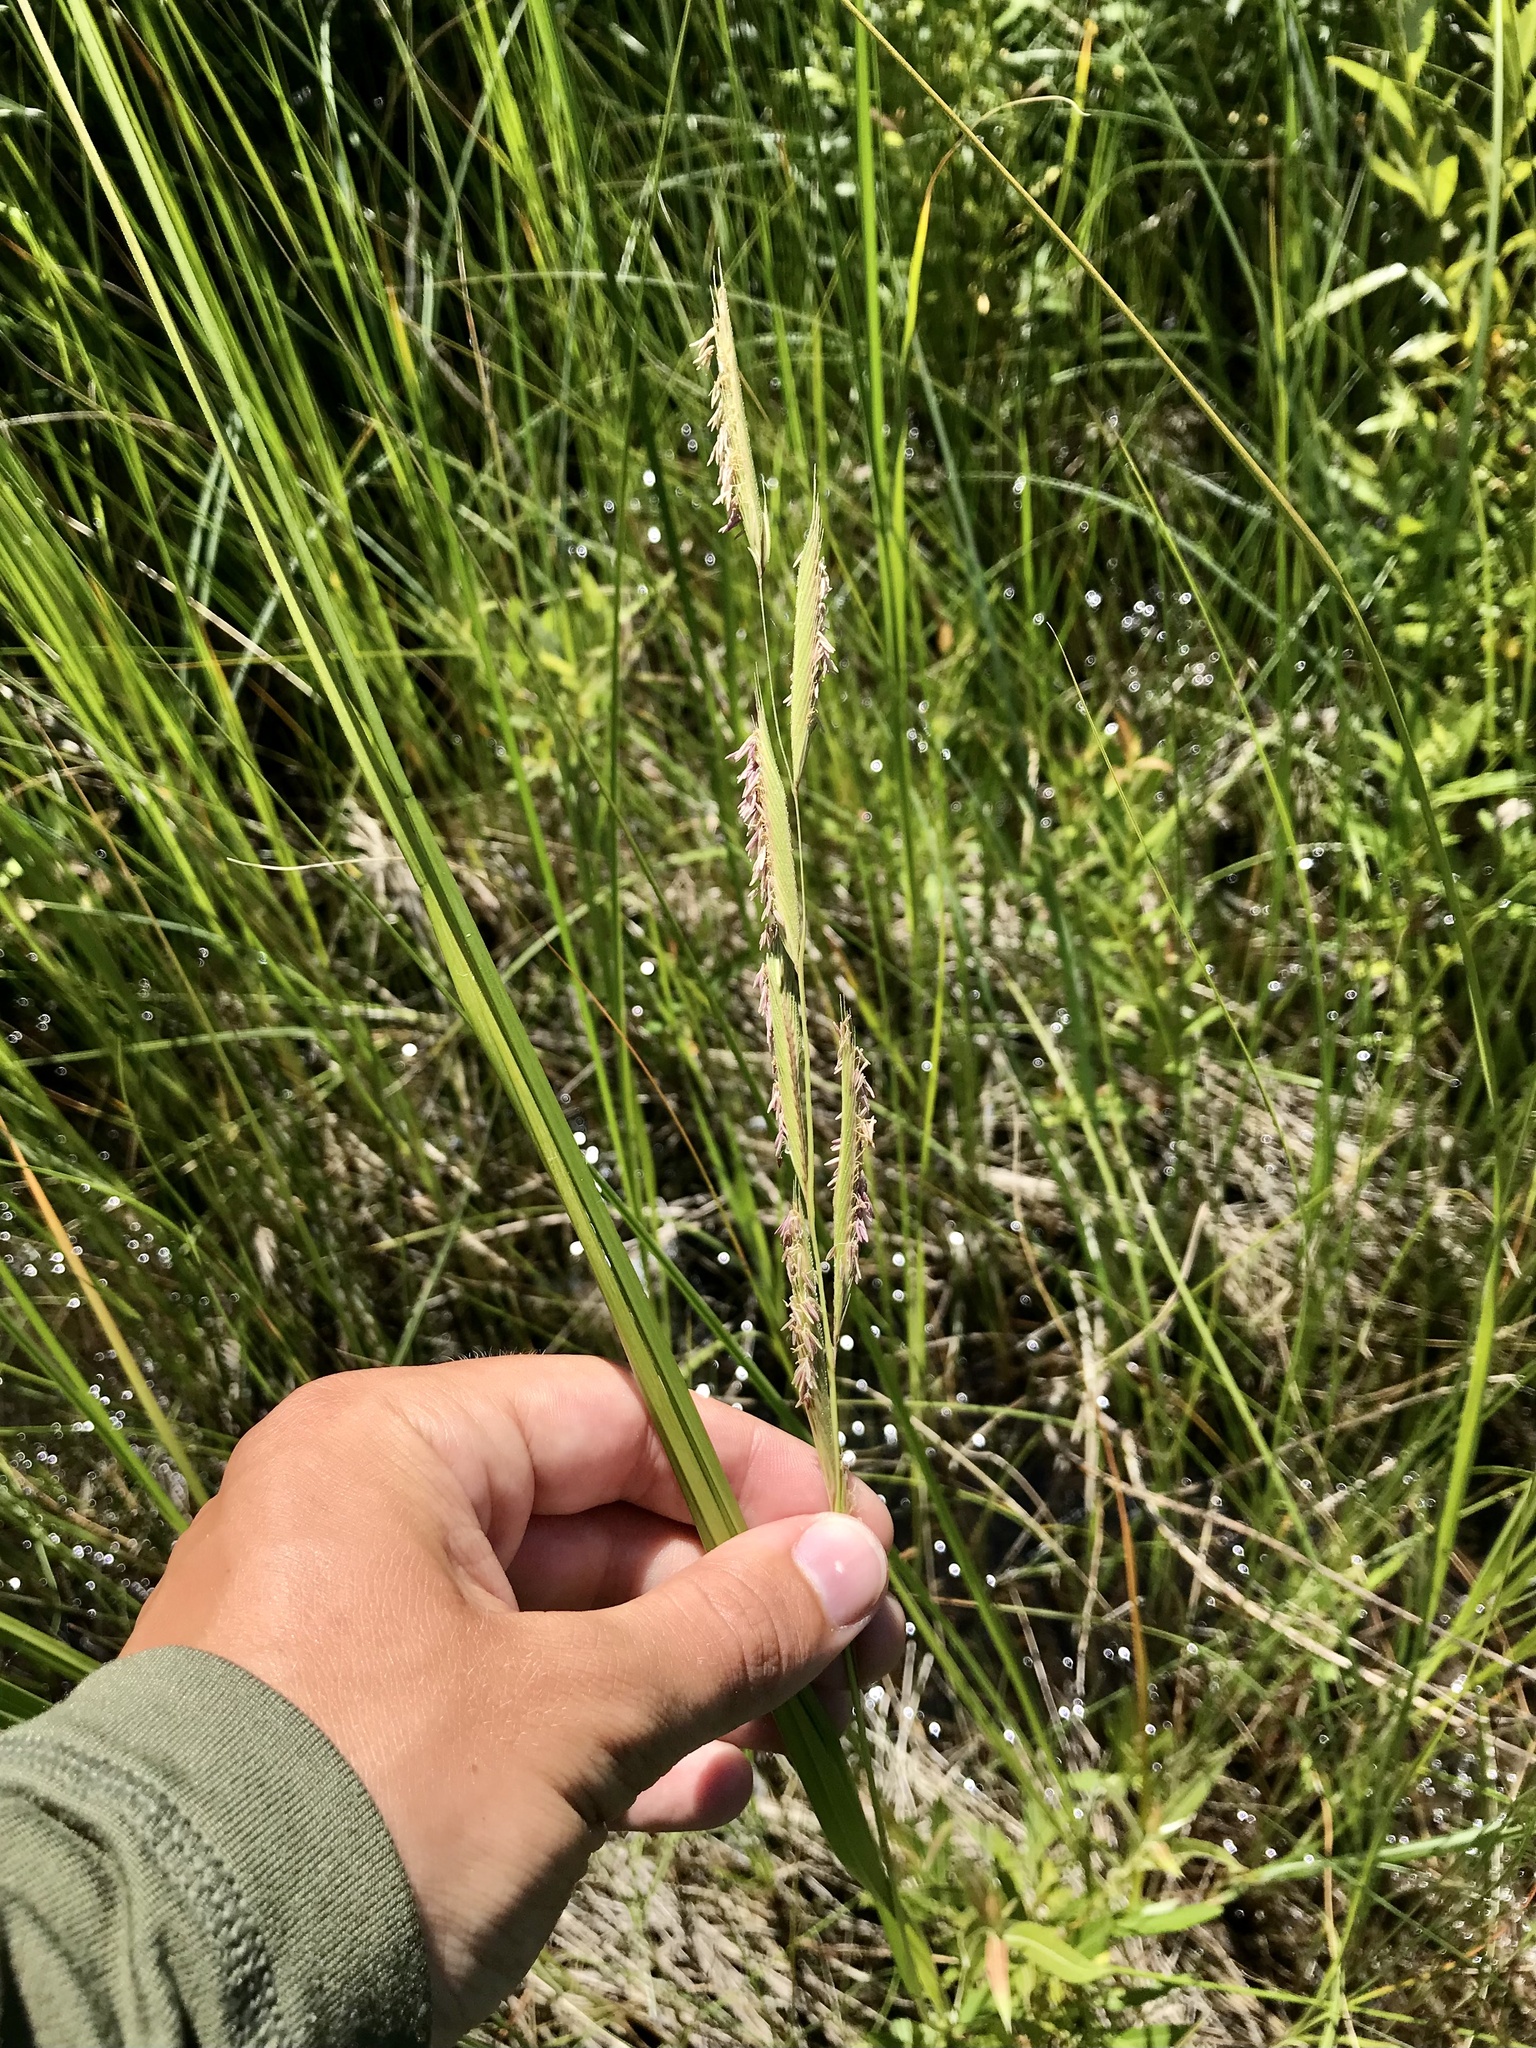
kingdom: Plantae
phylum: Tracheophyta
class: Liliopsida
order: Poales
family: Poaceae
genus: Sporobolus
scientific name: Sporobolus michauxianus
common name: Freshwater cordgrass
